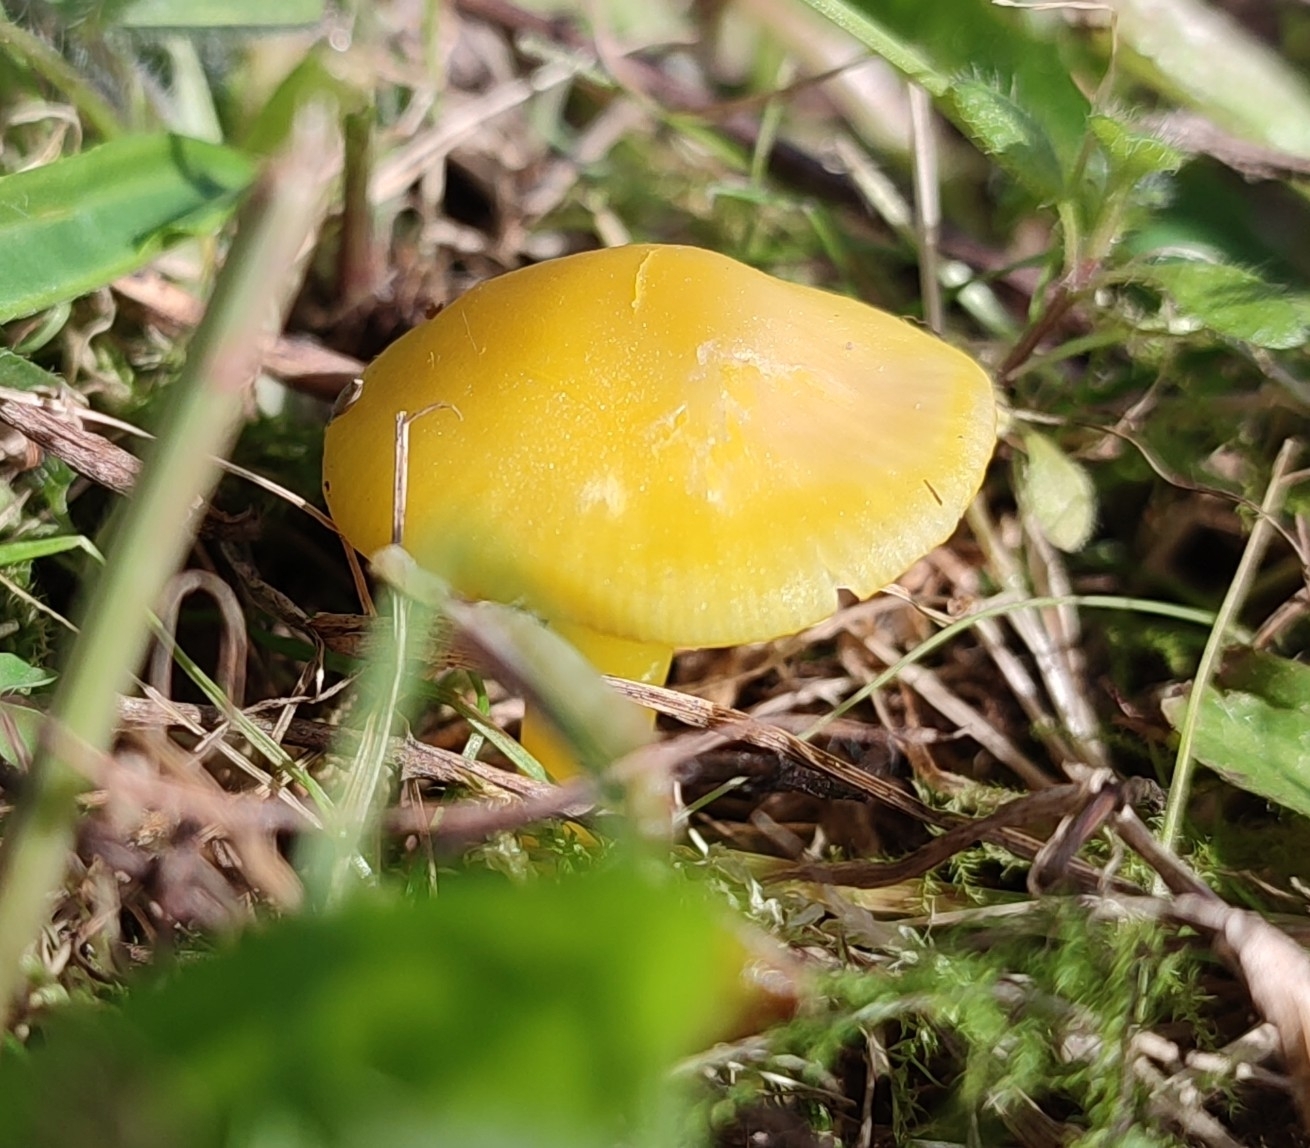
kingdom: Fungi
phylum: Basidiomycota
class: Agaricomycetes
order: Agaricales
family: Hygrophoraceae
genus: Hygrocybe
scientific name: Hygrocybe ceracea
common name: Butter waxcap
